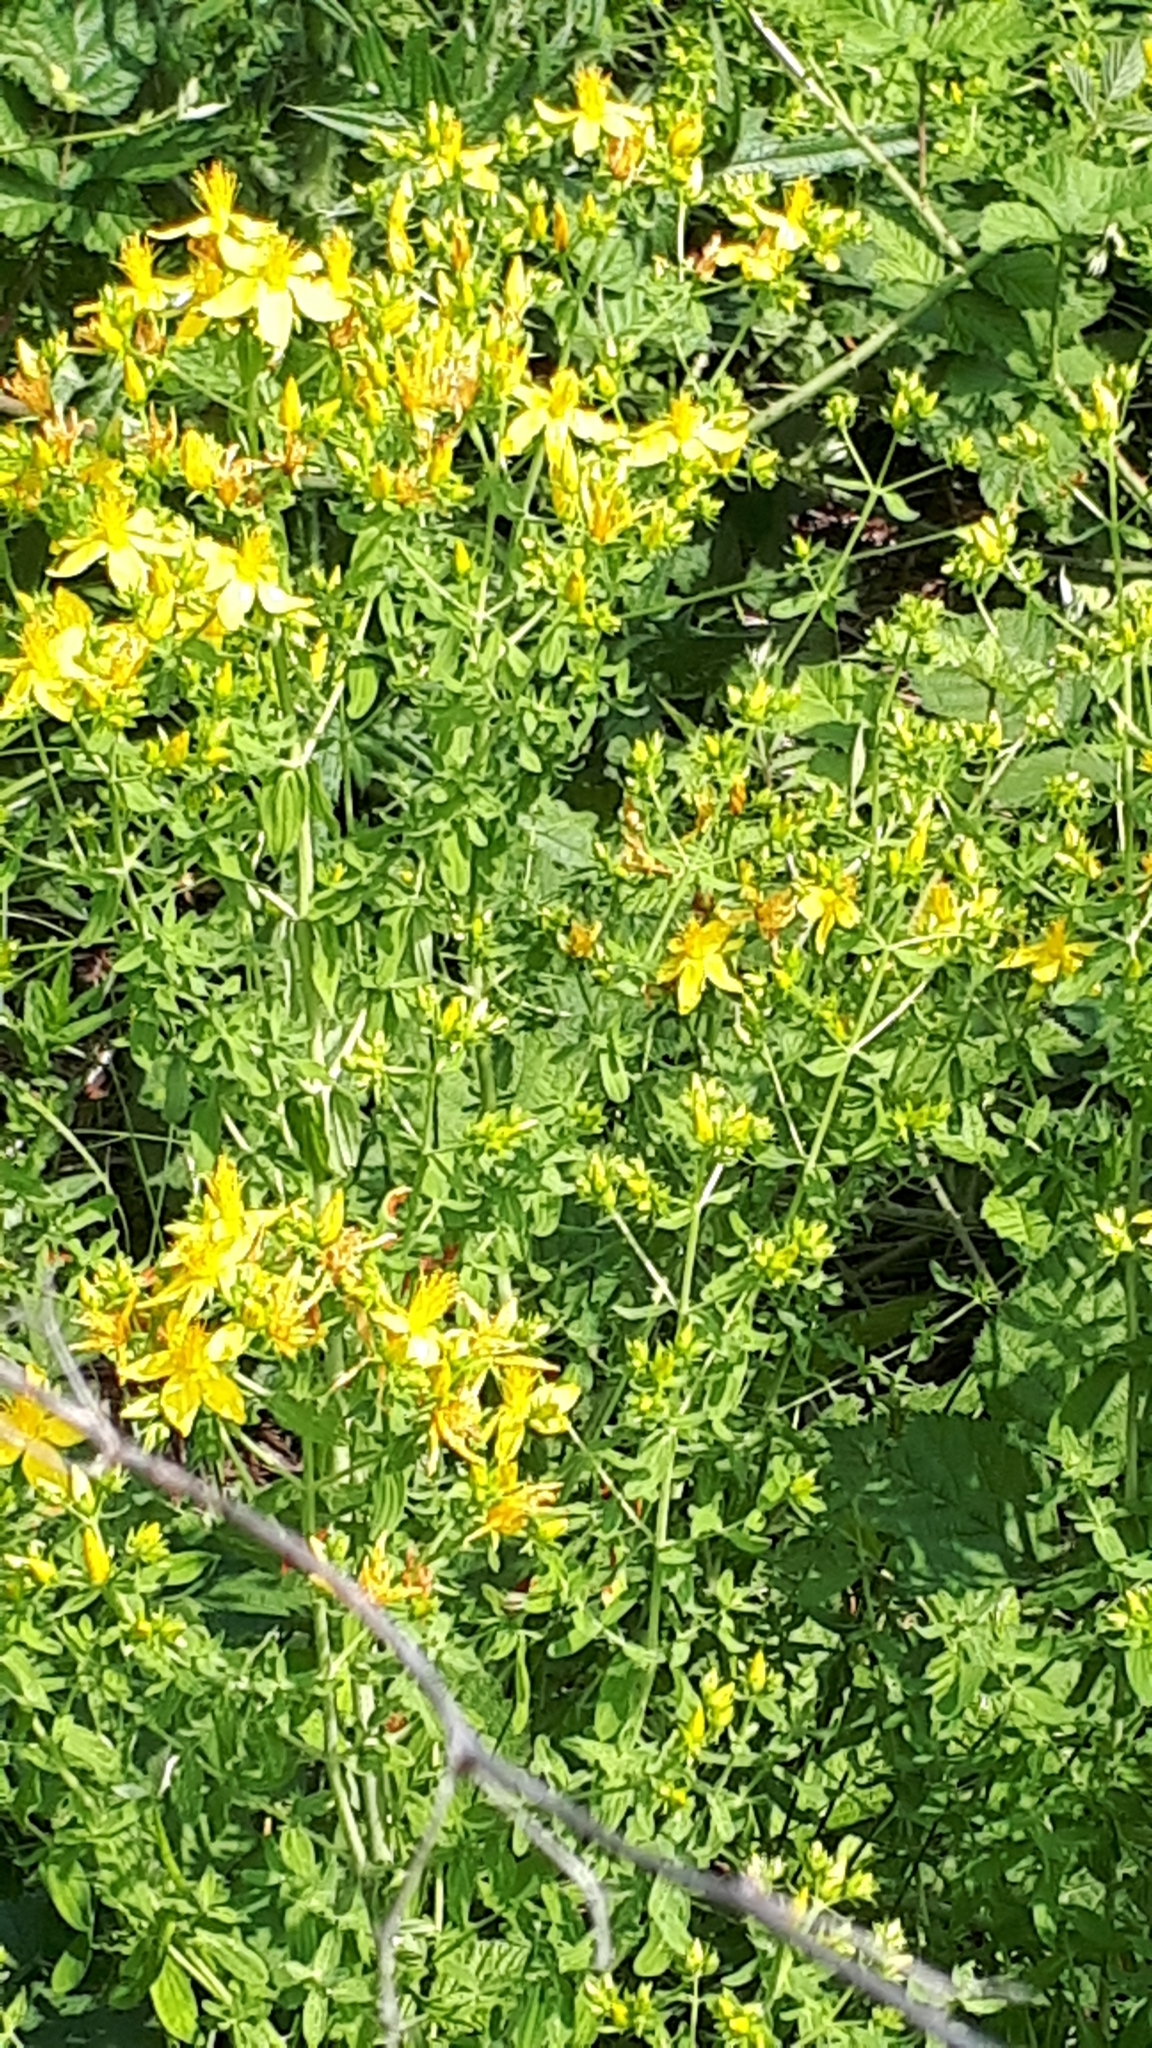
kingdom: Plantae
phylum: Tracheophyta
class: Magnoliopsida
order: Malpighiales
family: Hypericaceae
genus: Hypericum
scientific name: Hypericum perforatum
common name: Common st. johnswort
